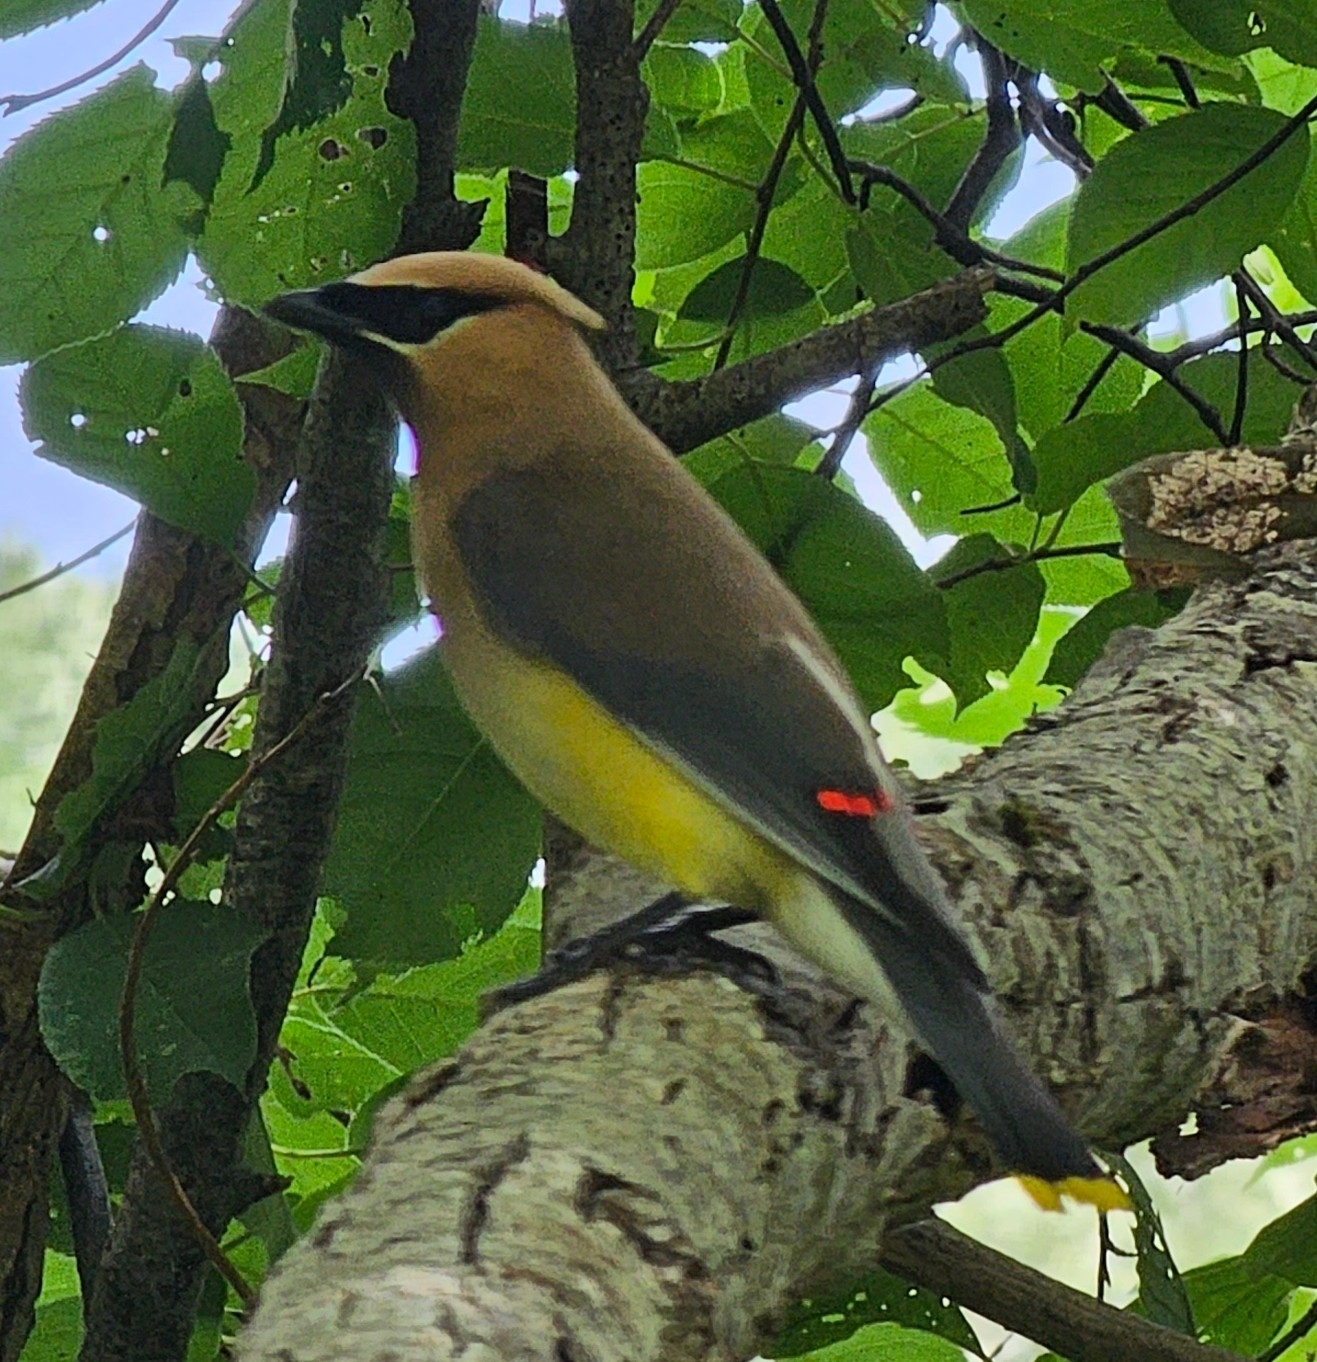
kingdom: Animalia
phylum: Chordata
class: Aves
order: Passeriformes
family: Bombycillidae
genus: Bombycilla
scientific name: Bombycilla cedrorum
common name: Cedar waxwing
